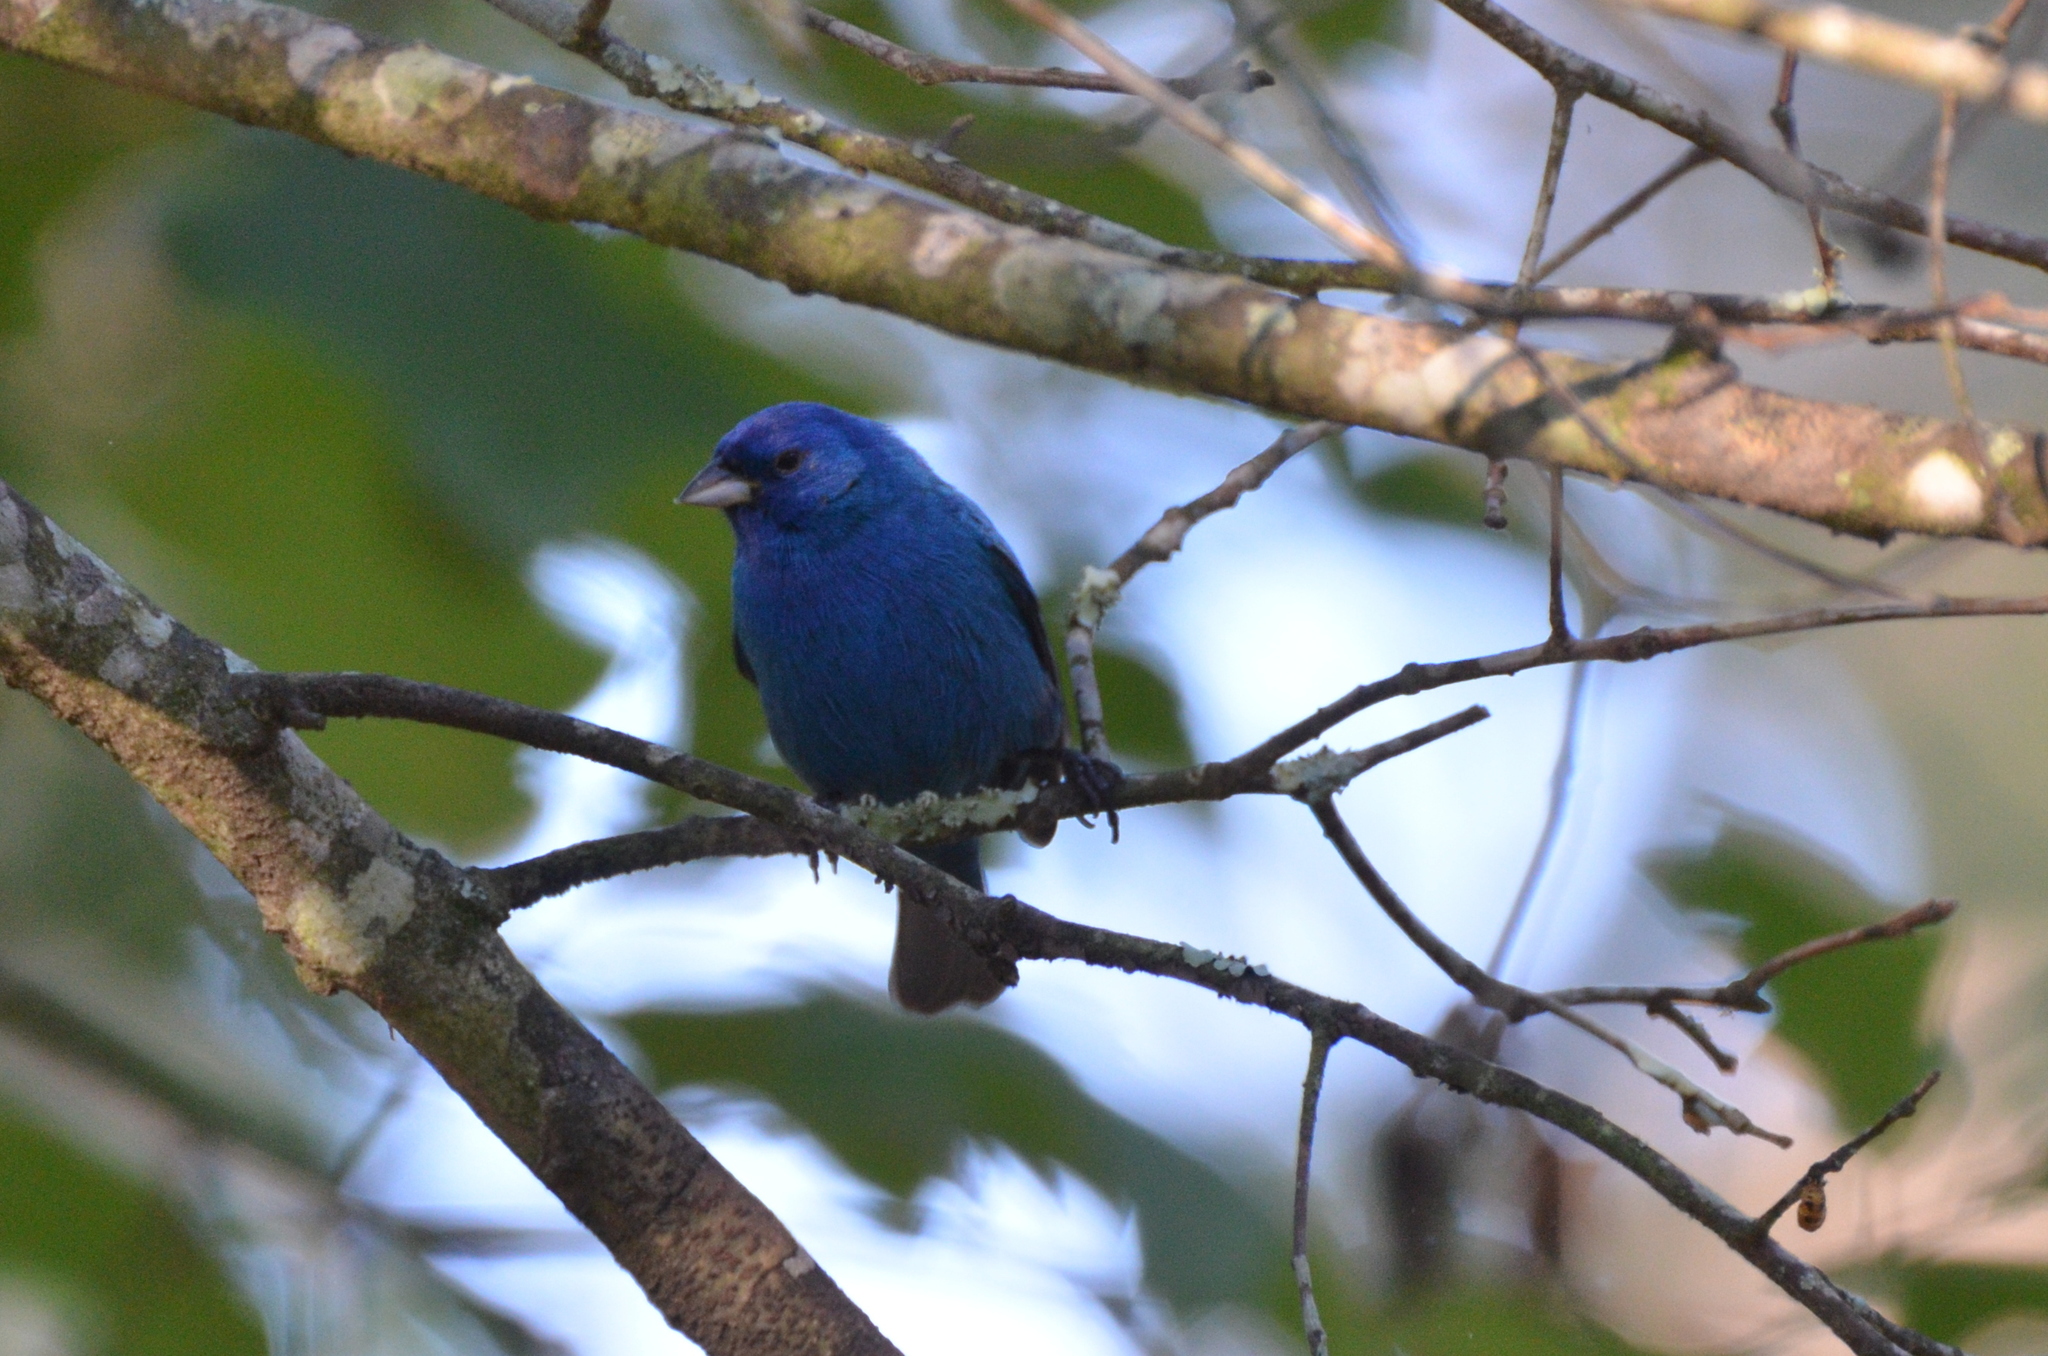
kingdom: Animalia
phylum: Chordata
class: Aves
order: Passeriformes
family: Cardinalidae
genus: Passerina
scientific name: Passerina cyanea
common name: Indigo bunting
